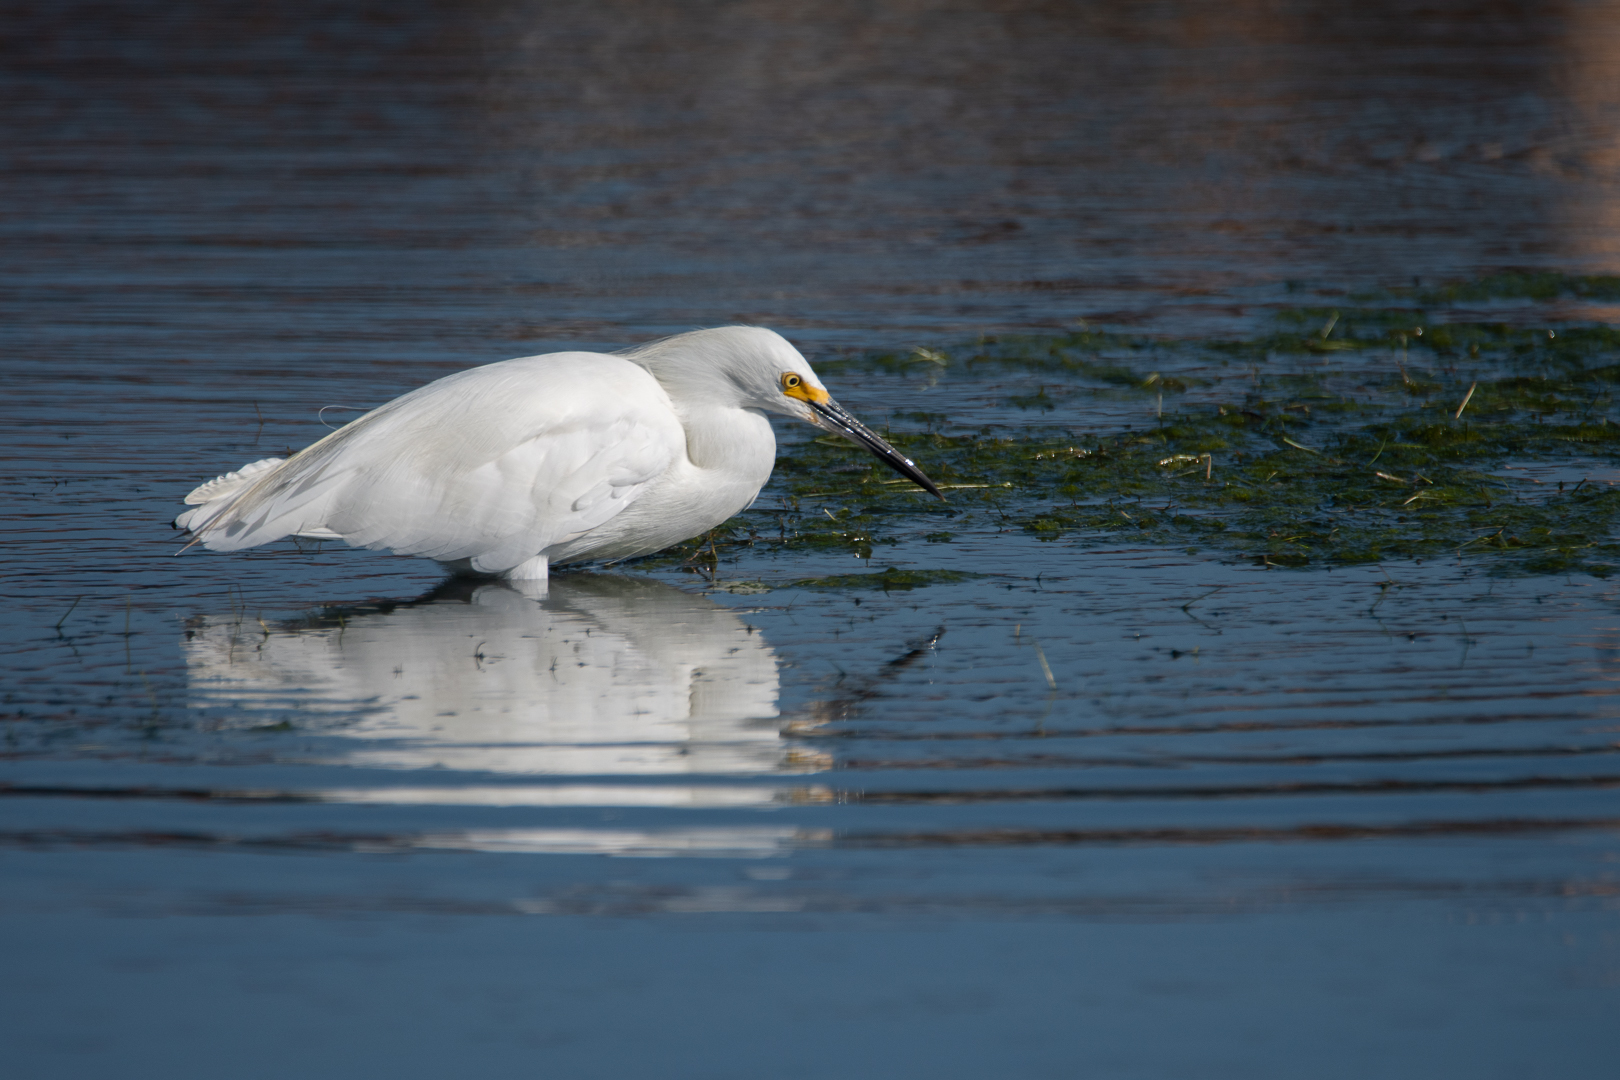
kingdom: Animalia
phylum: Chordata
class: Aves
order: Pelecaniformes
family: Ardeidae
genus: Egretta
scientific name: Egretta thula
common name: Snowy egret
